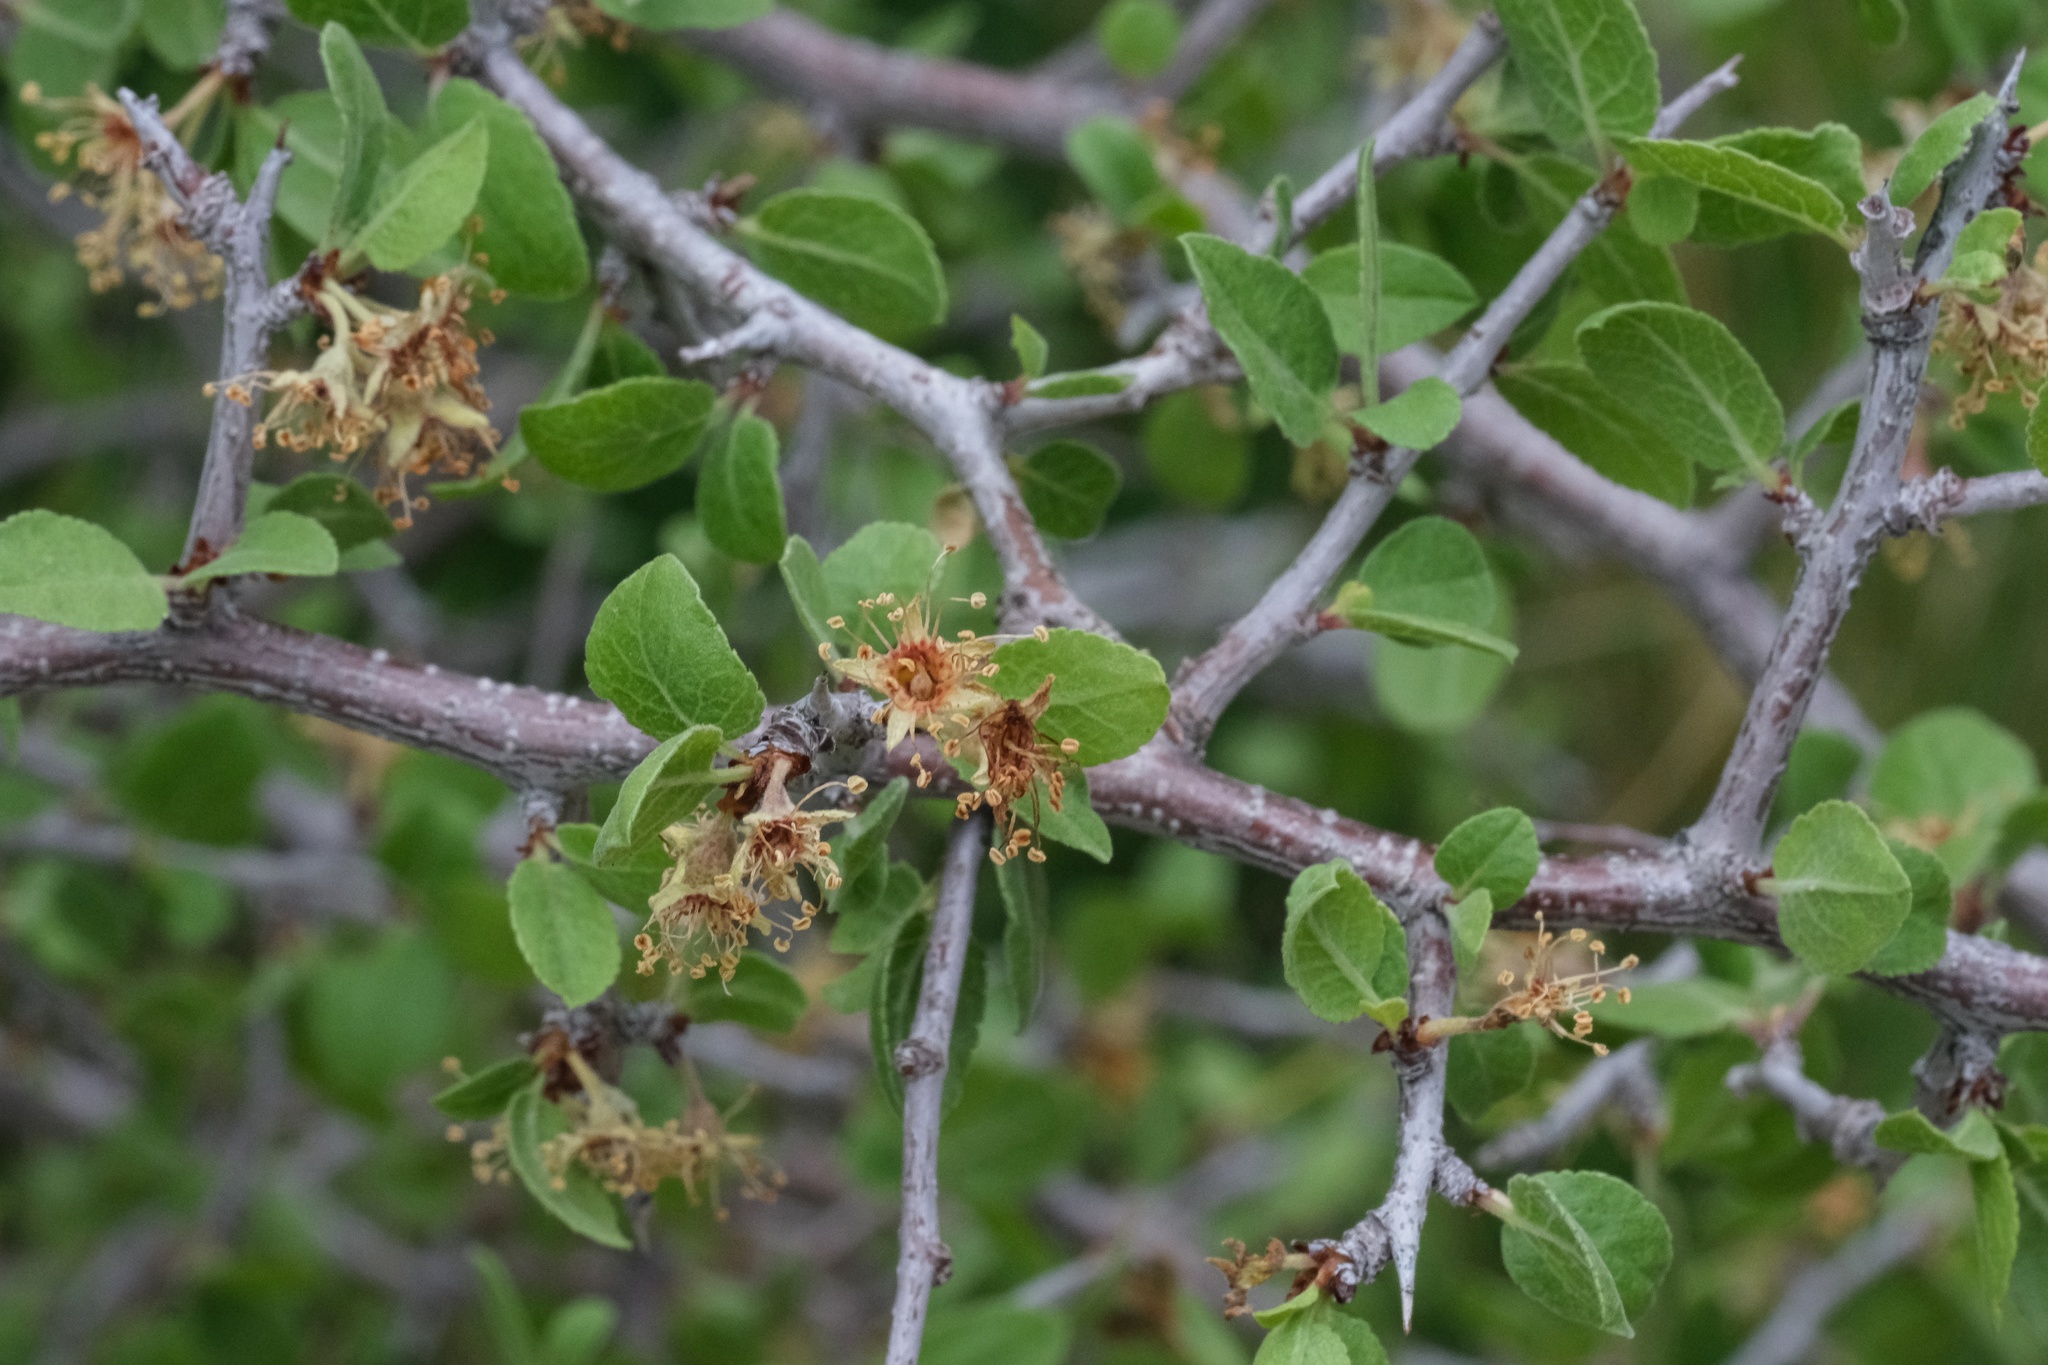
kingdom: Plantae
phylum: Tracheophyta
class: Magnoliopsida
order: Rosales
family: Rosaceae
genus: Prunus
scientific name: Prunus fremontii
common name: Desert apricot
